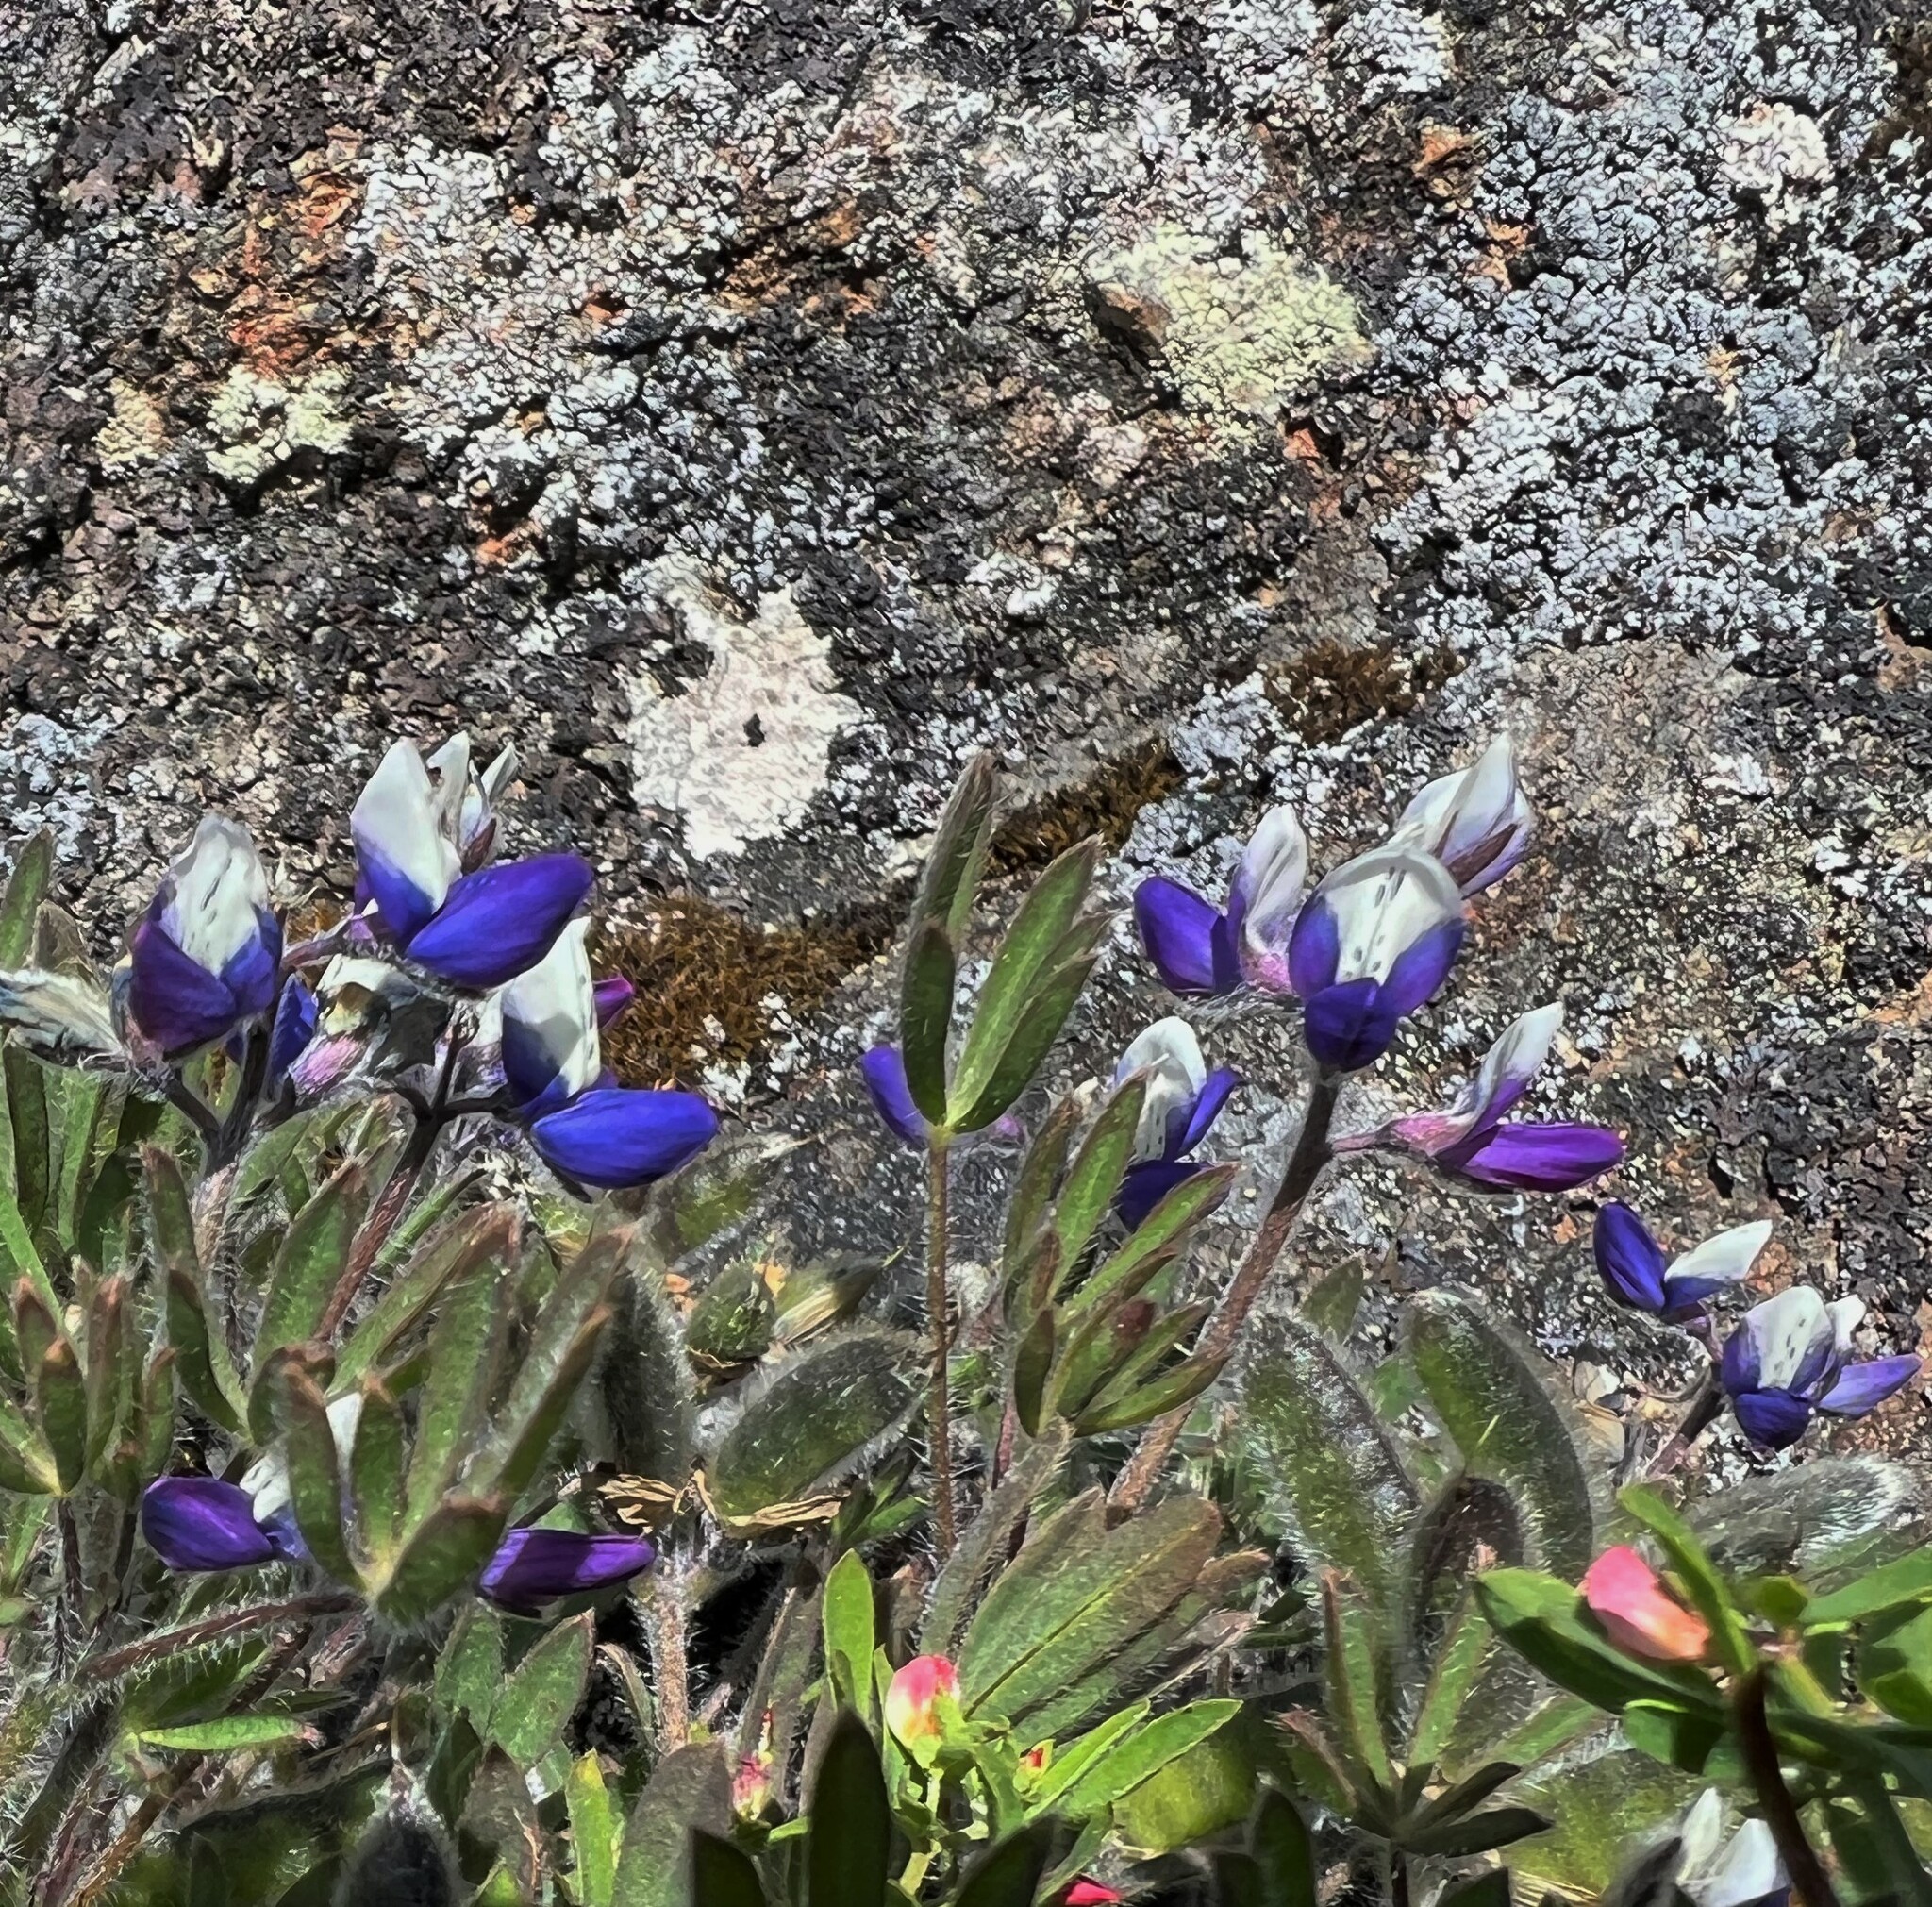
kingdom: Plantae
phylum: Tracheophyta
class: Magnoliopsida
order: Fabales
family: Fabaceae
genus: Lupinus
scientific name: Lupinus bicolor
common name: Miniature lupine
